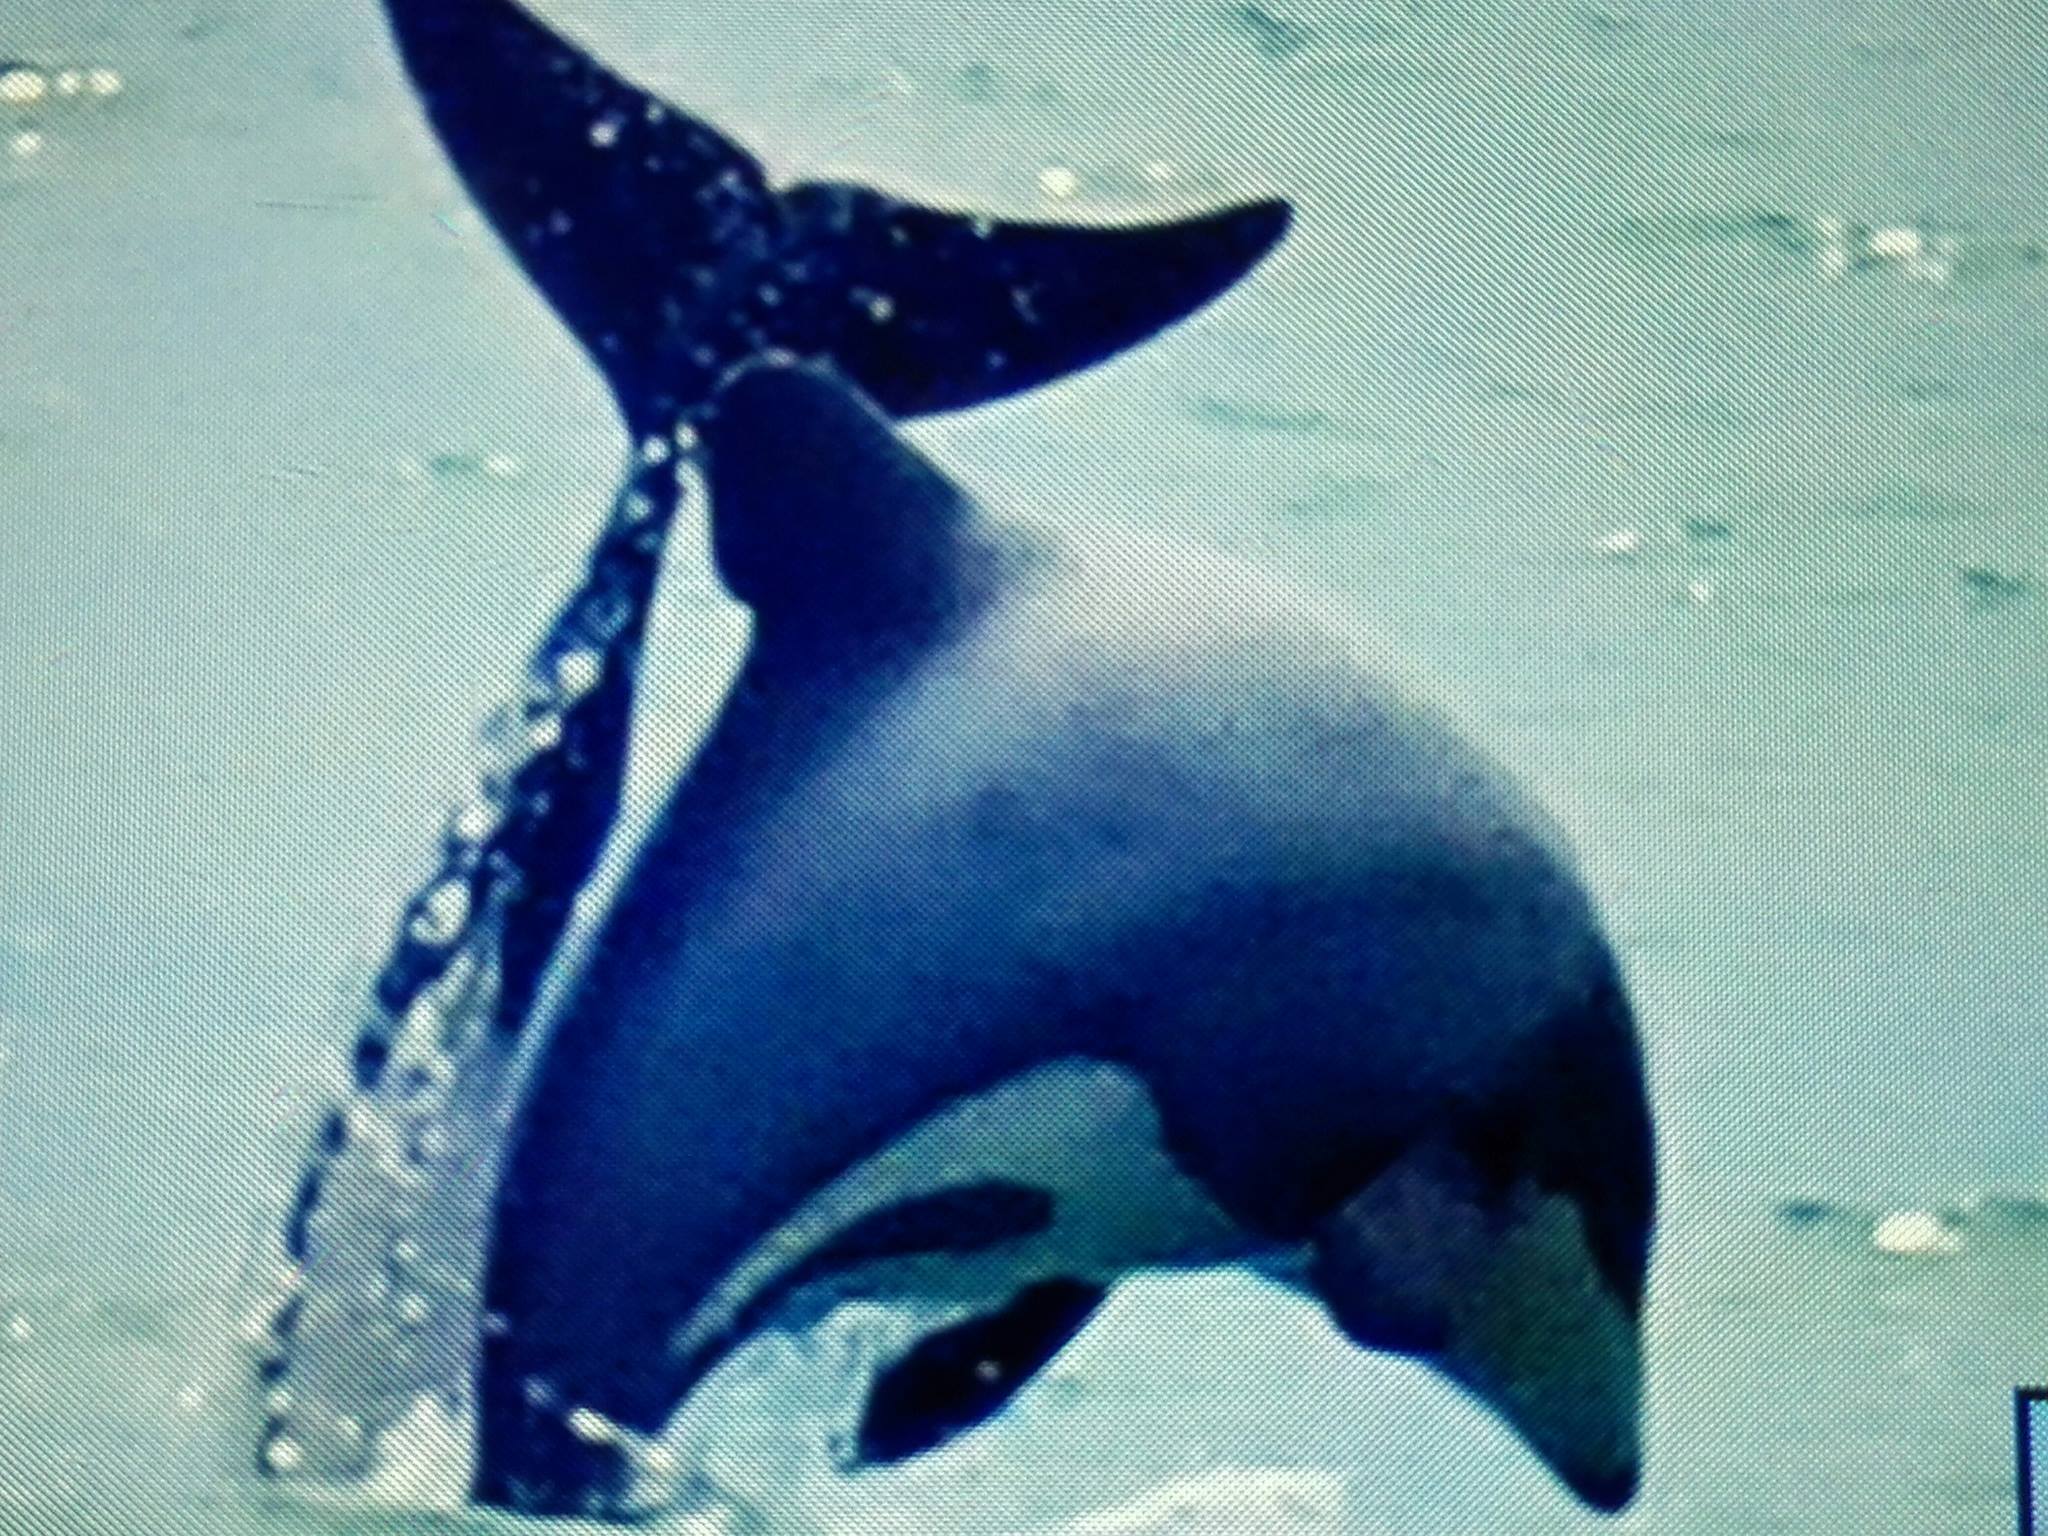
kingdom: Animalia
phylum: Chordata
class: Mammalia
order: Cetacea
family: Delphinidae
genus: Cephalorhynchus
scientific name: Cephalorhynchus hectori
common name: Hector's dolphin
